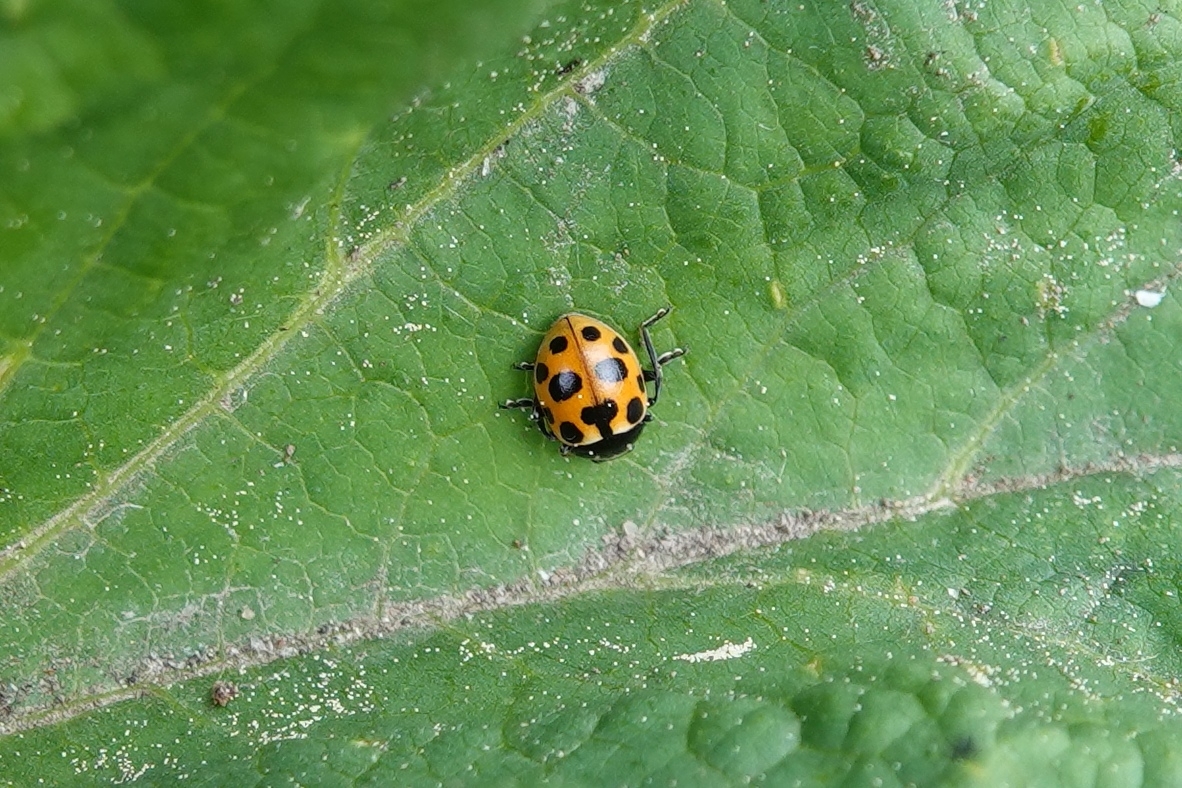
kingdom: Animalia
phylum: Arthropoda
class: Insecta
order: Coleoptera
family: Coccinellidae
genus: Ceratomegilla
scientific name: Ceratomegilla notata
